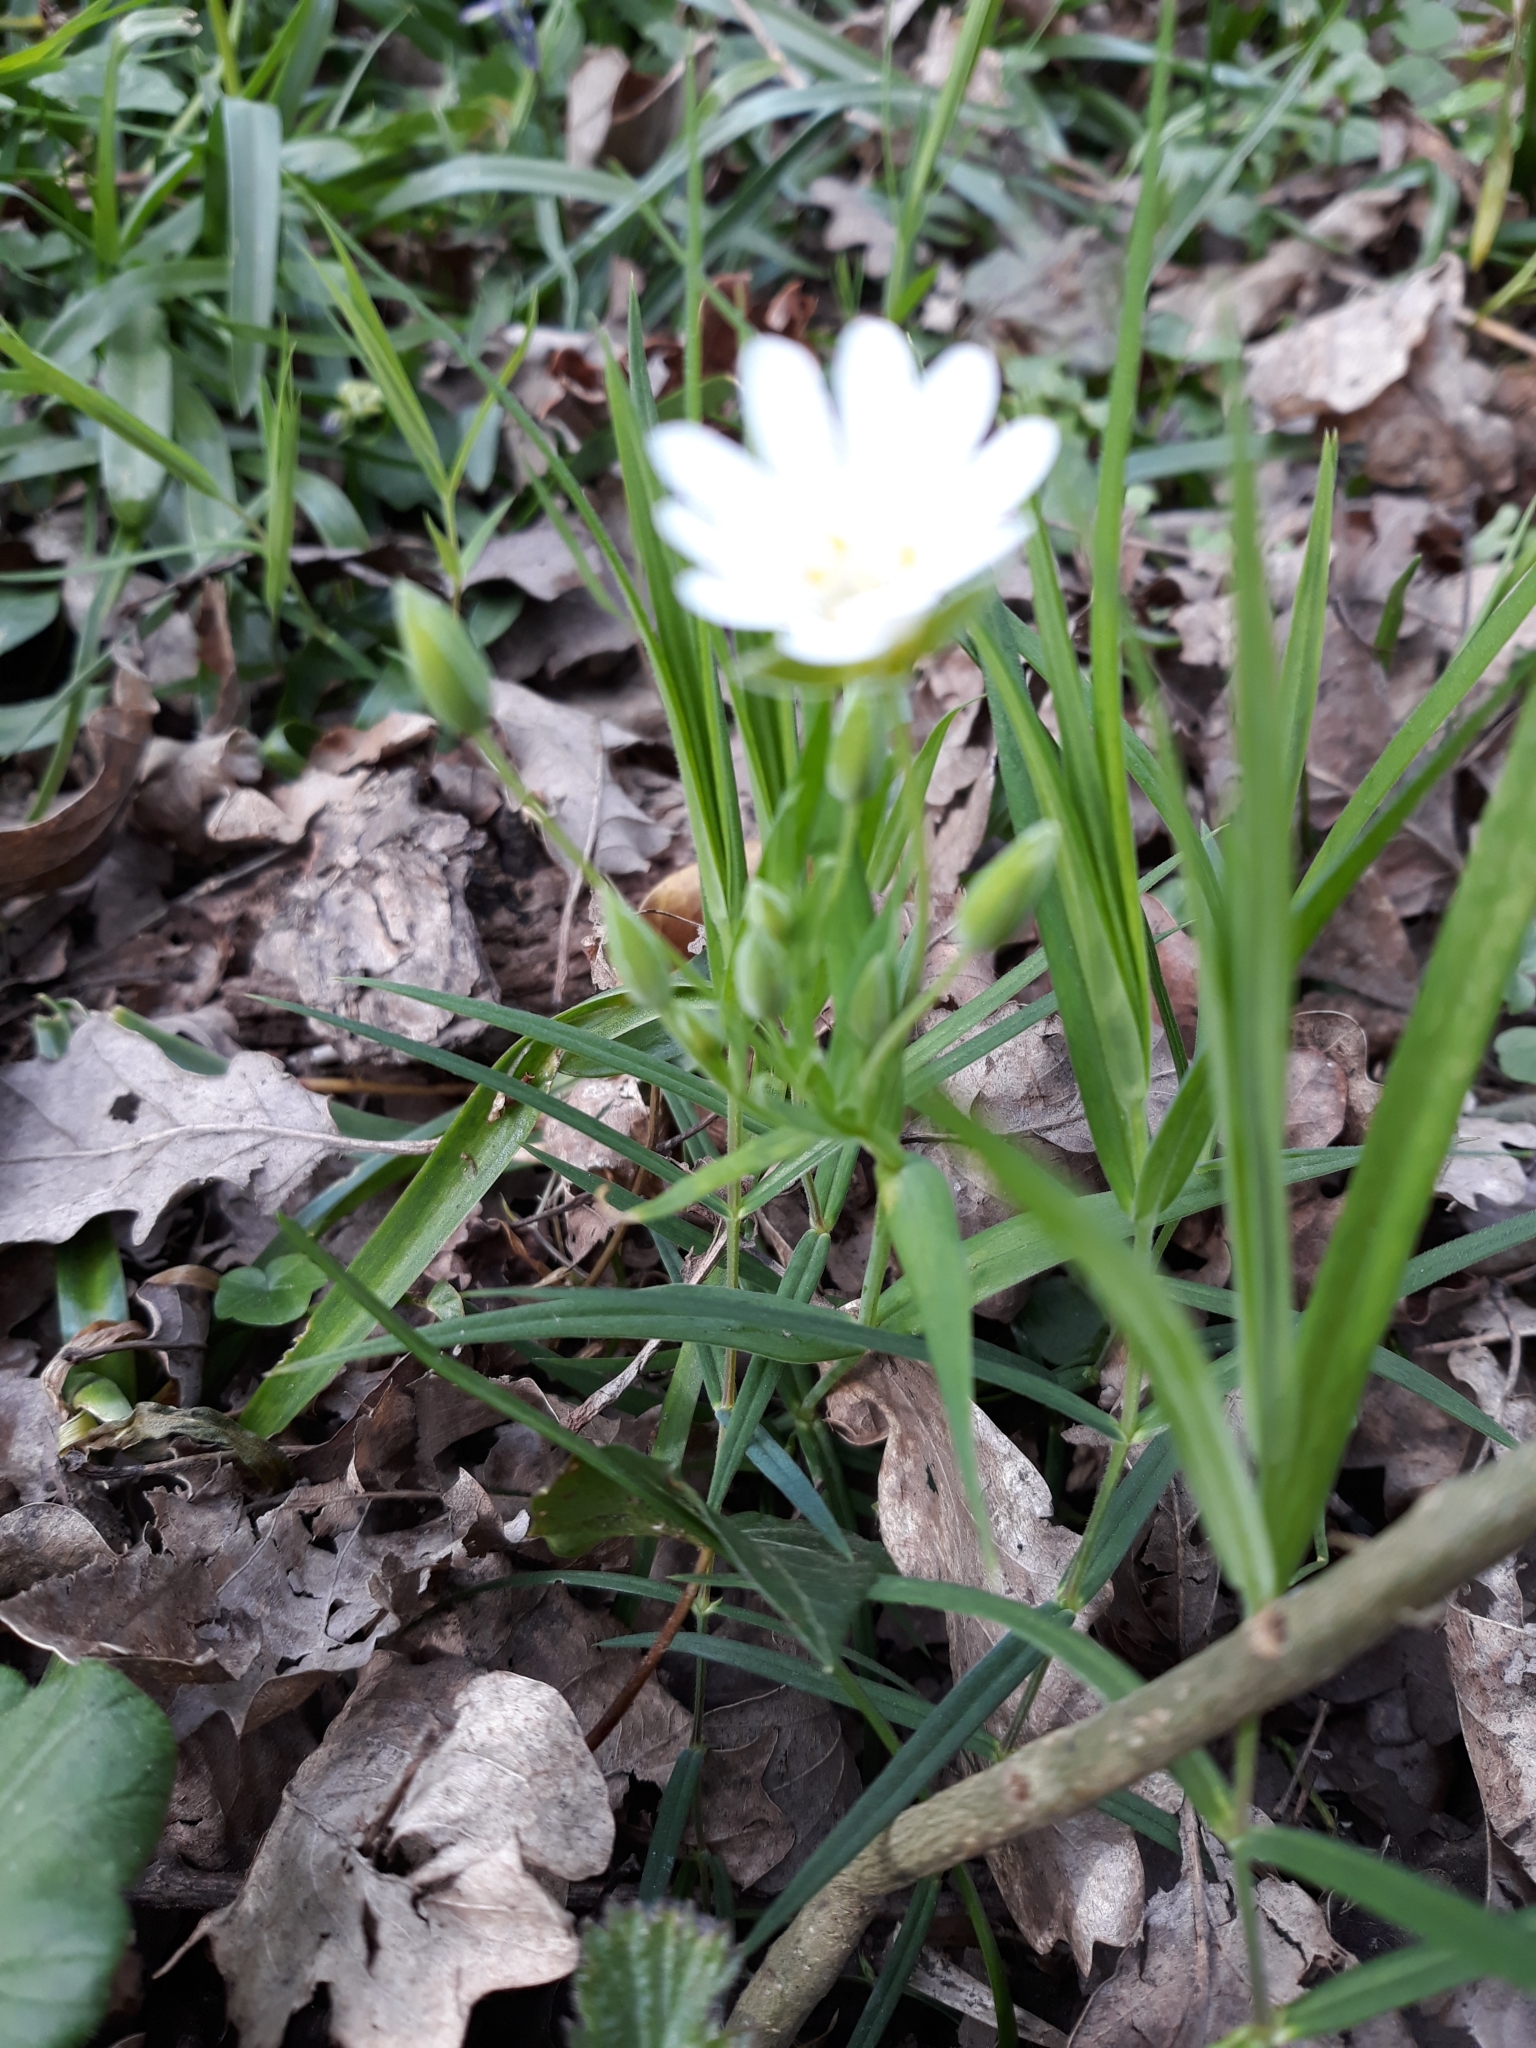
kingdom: Plantae
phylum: Tracheophyta
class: Magnoliopsida
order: Caryophyllales
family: Caryophyllaceae
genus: Rabelera
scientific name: Rabelera holostea
